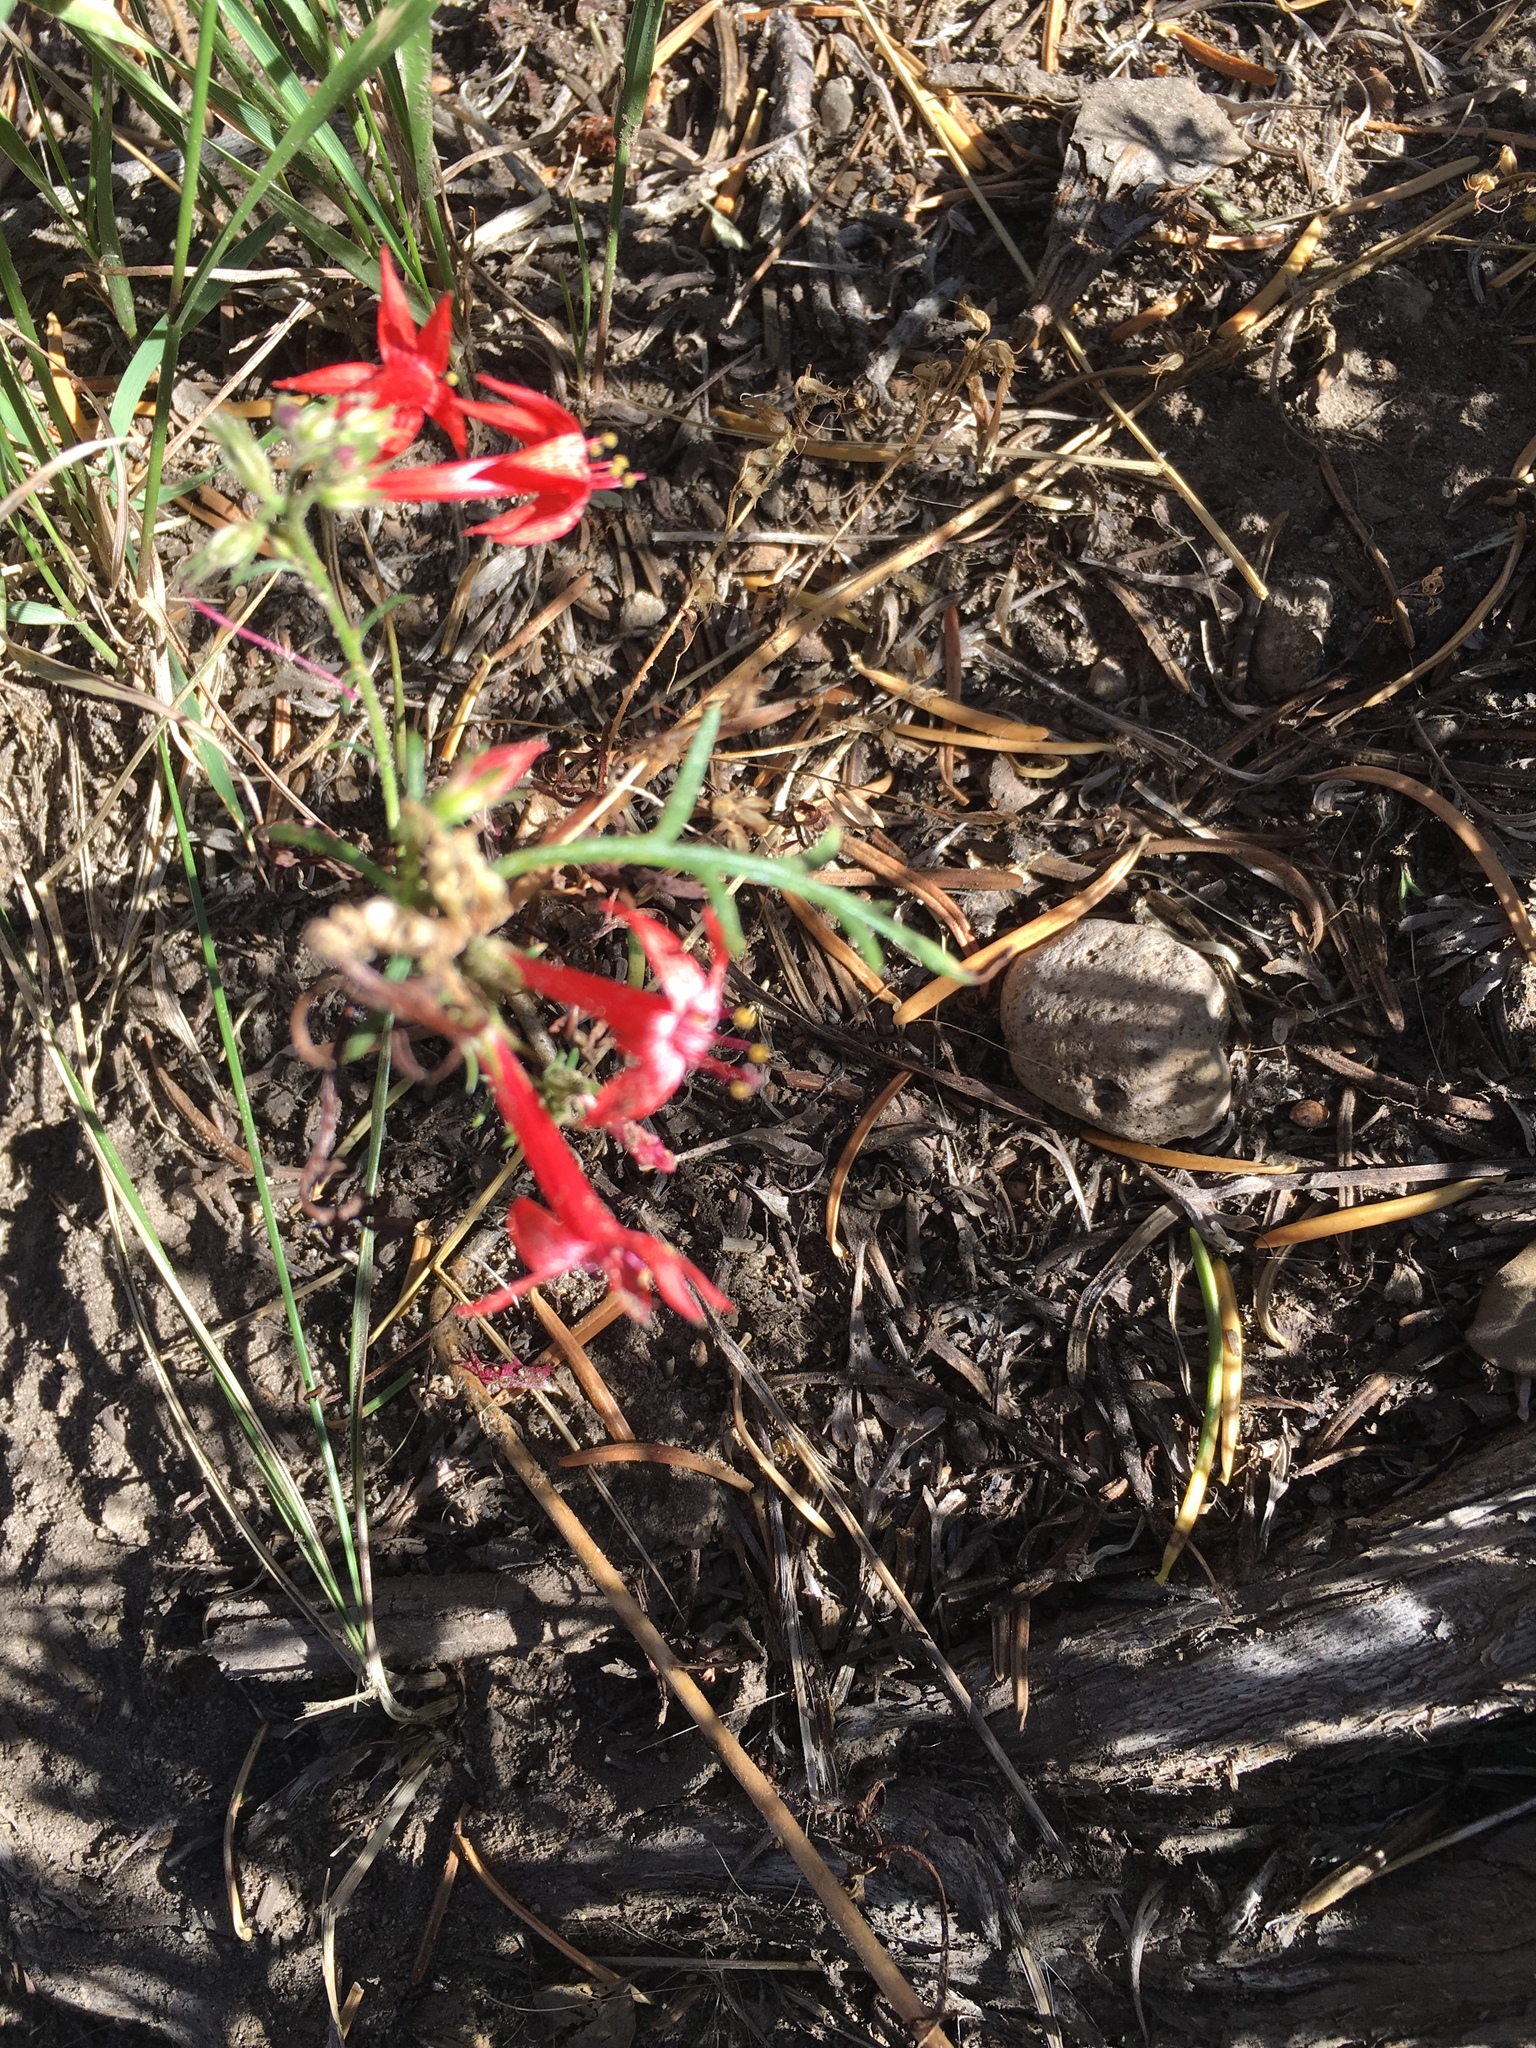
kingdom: Plantae
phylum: Tracheophyta
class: Magnoliopsida
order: Ericales
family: Polemoniaceae
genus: Ipomopsis
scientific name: Ipomopsis aggregata
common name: Scarlet gilia
